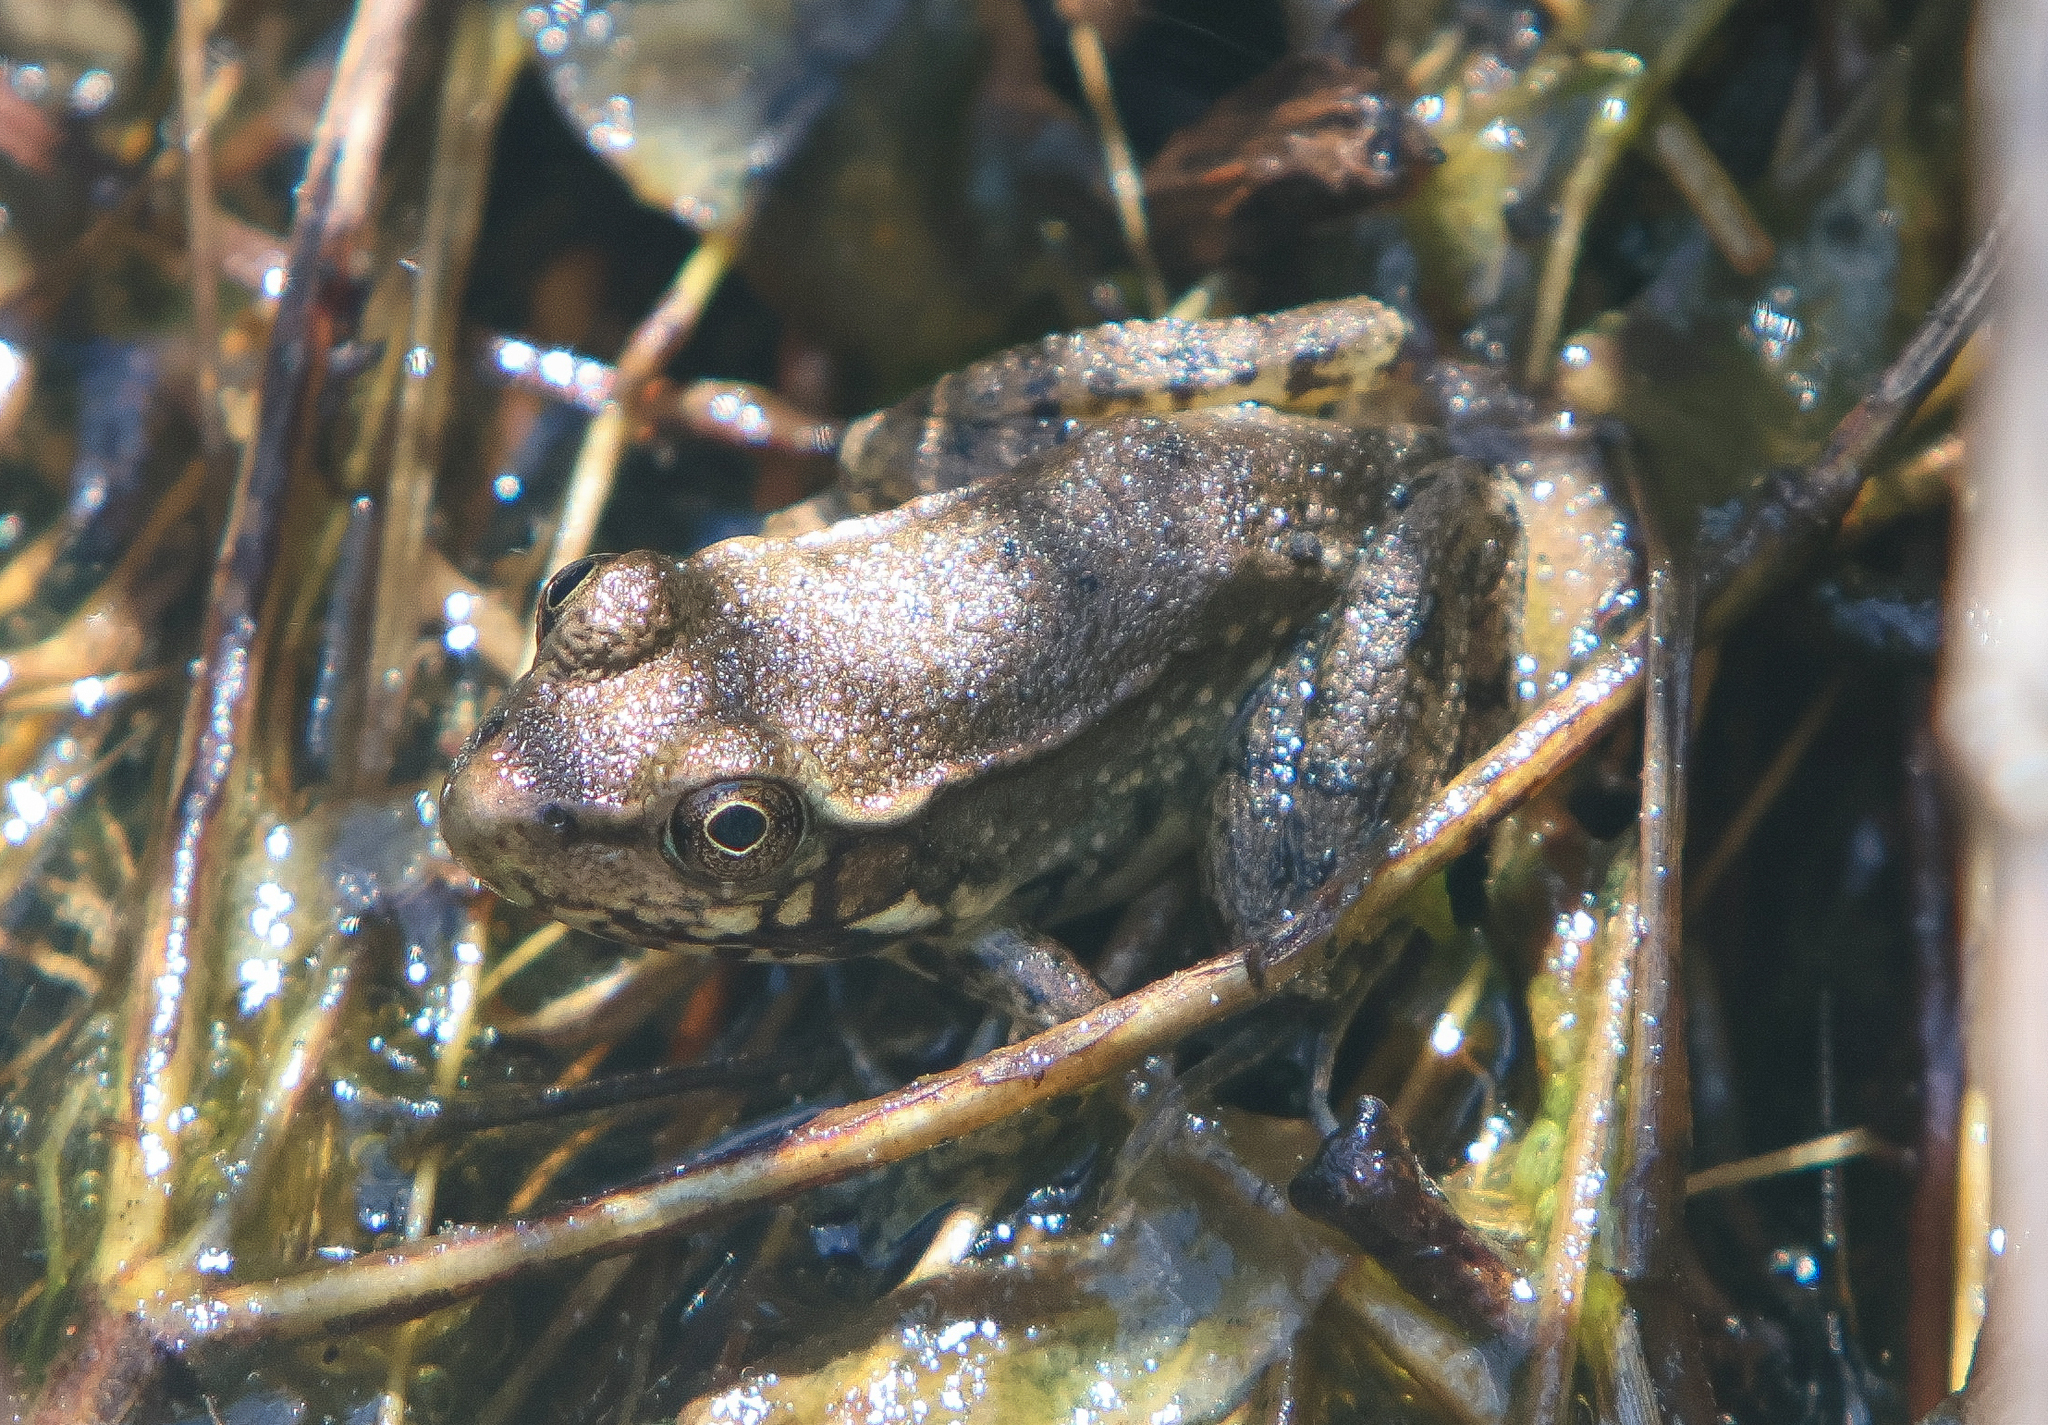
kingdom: Animalia
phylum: Chordata
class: Amphibia
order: Anura
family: Ranidae
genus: Lithobates
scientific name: Lithobates clamitans
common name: Green frog
